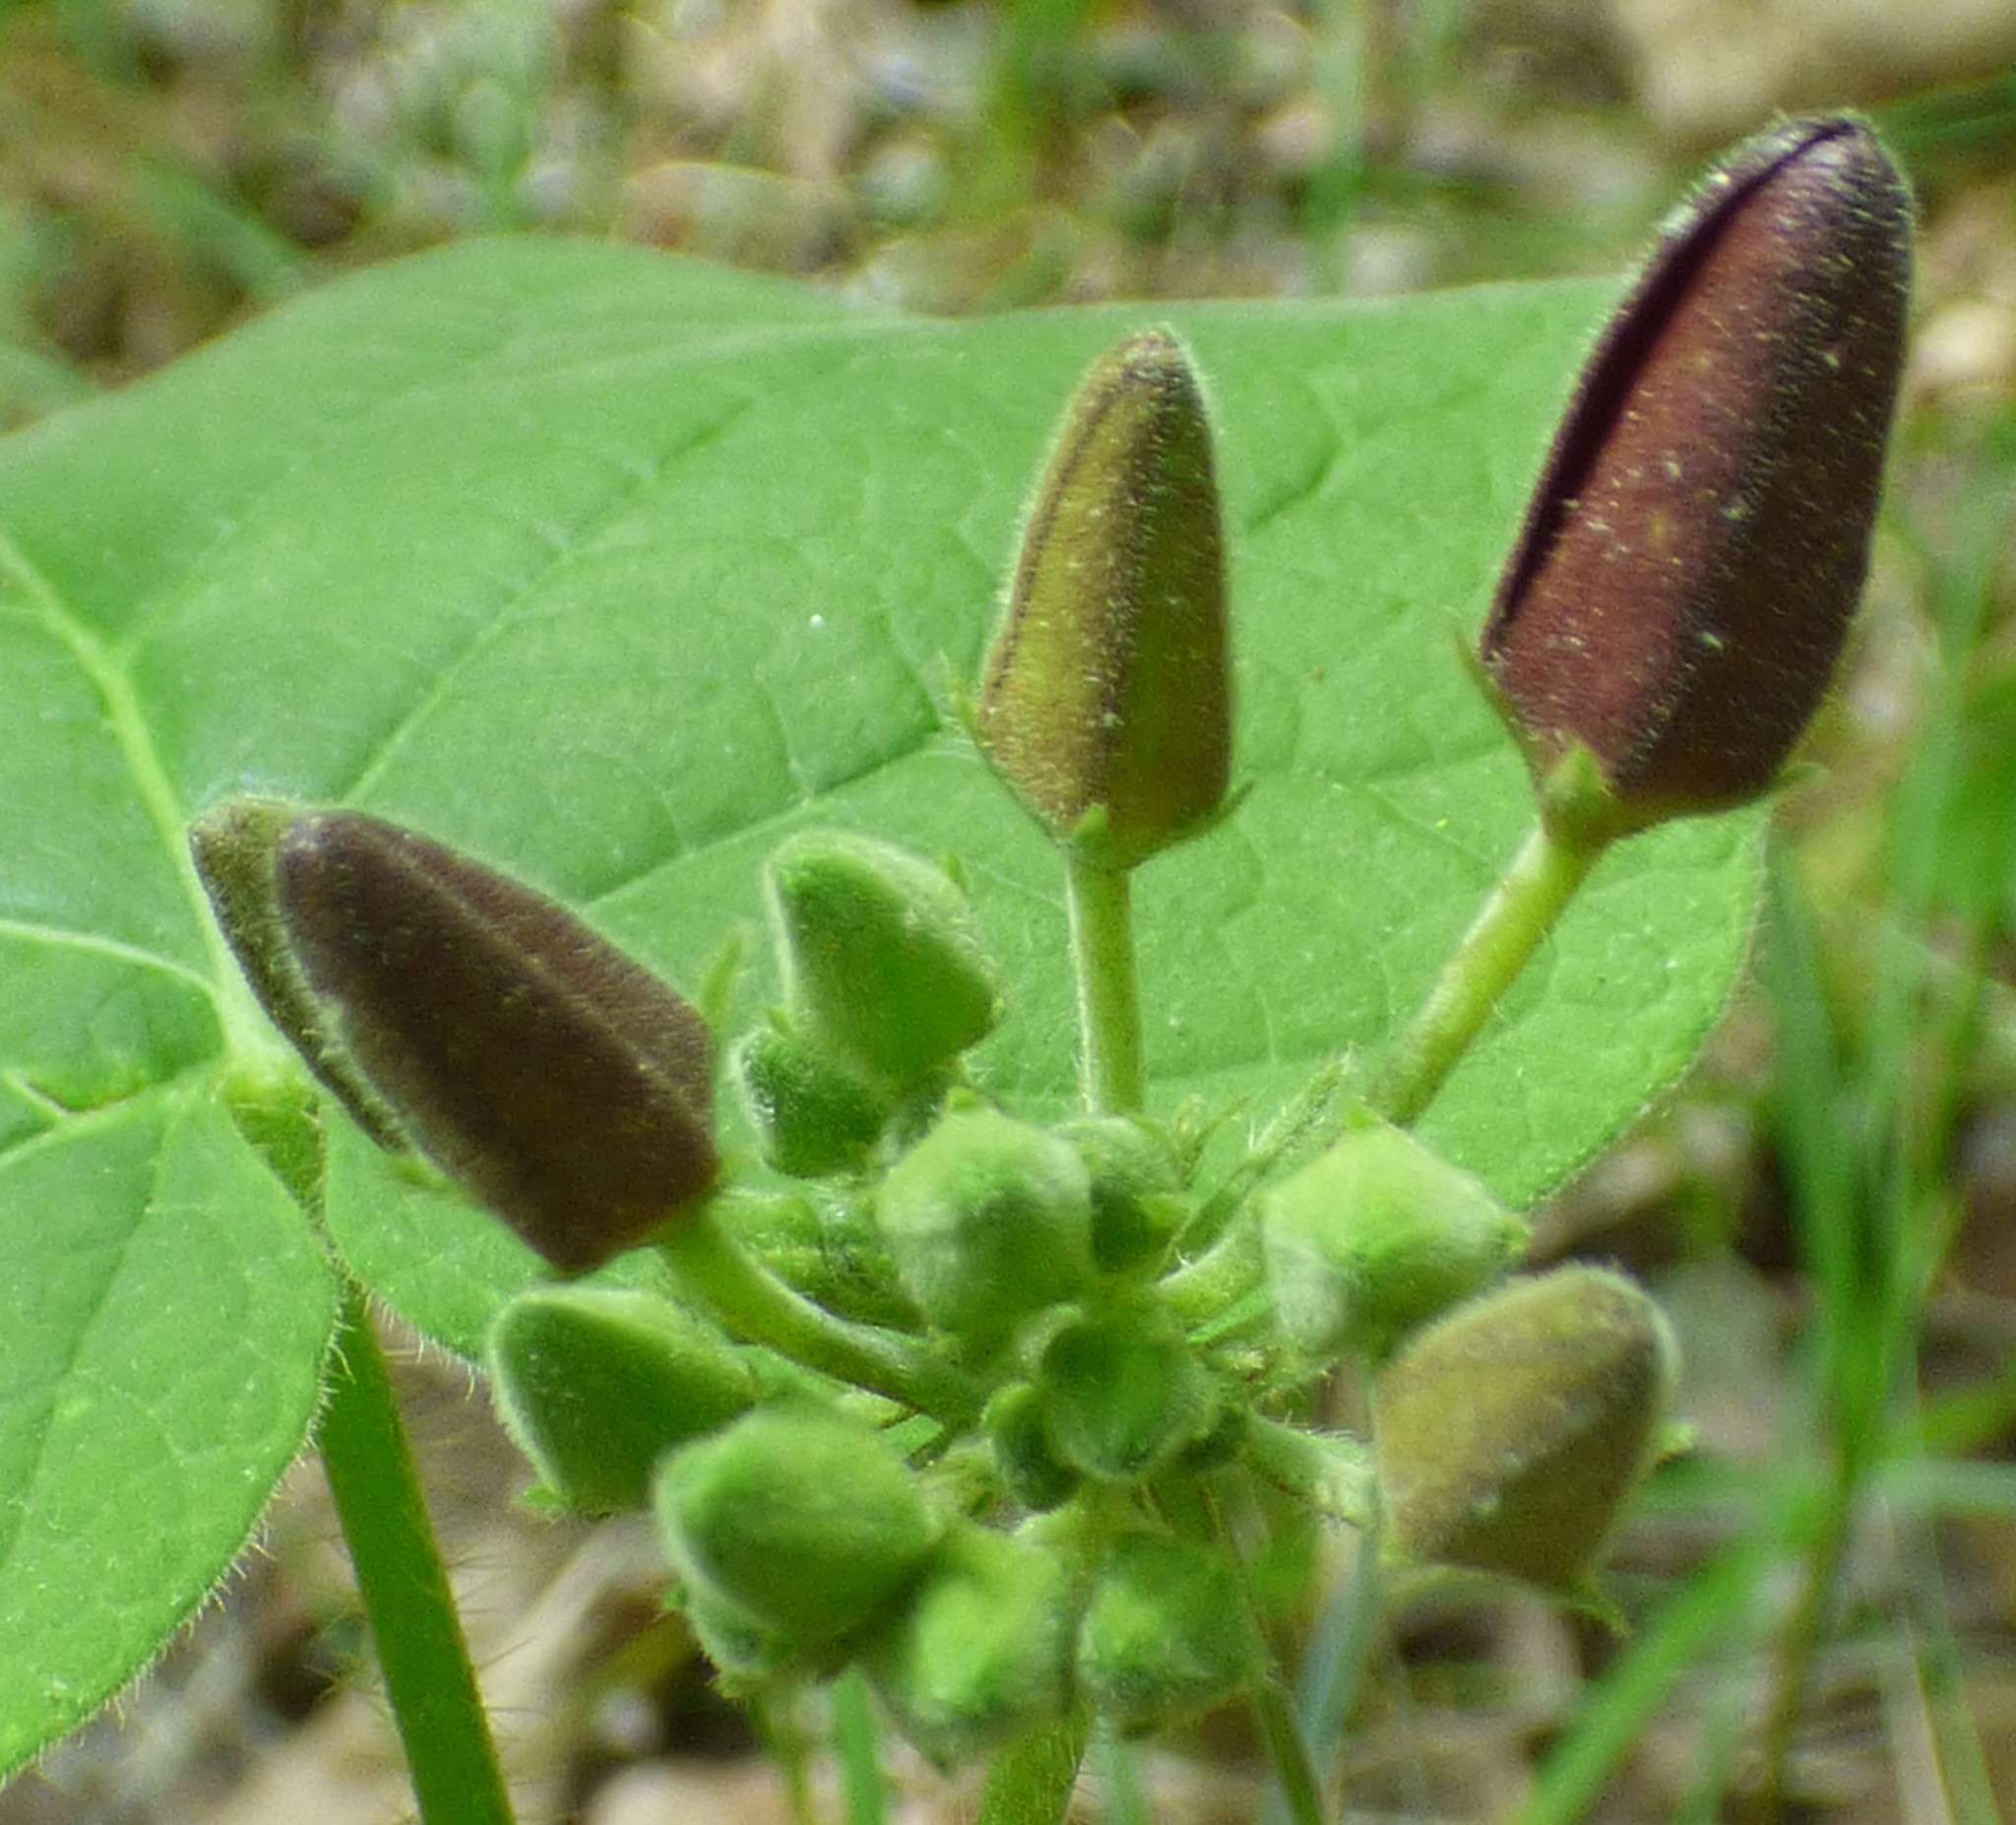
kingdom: Plantae
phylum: Tracheophyta
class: Magnoliopsida
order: Gentianales
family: Apocynaceae
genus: Matelea
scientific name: Matelea carolinensis
